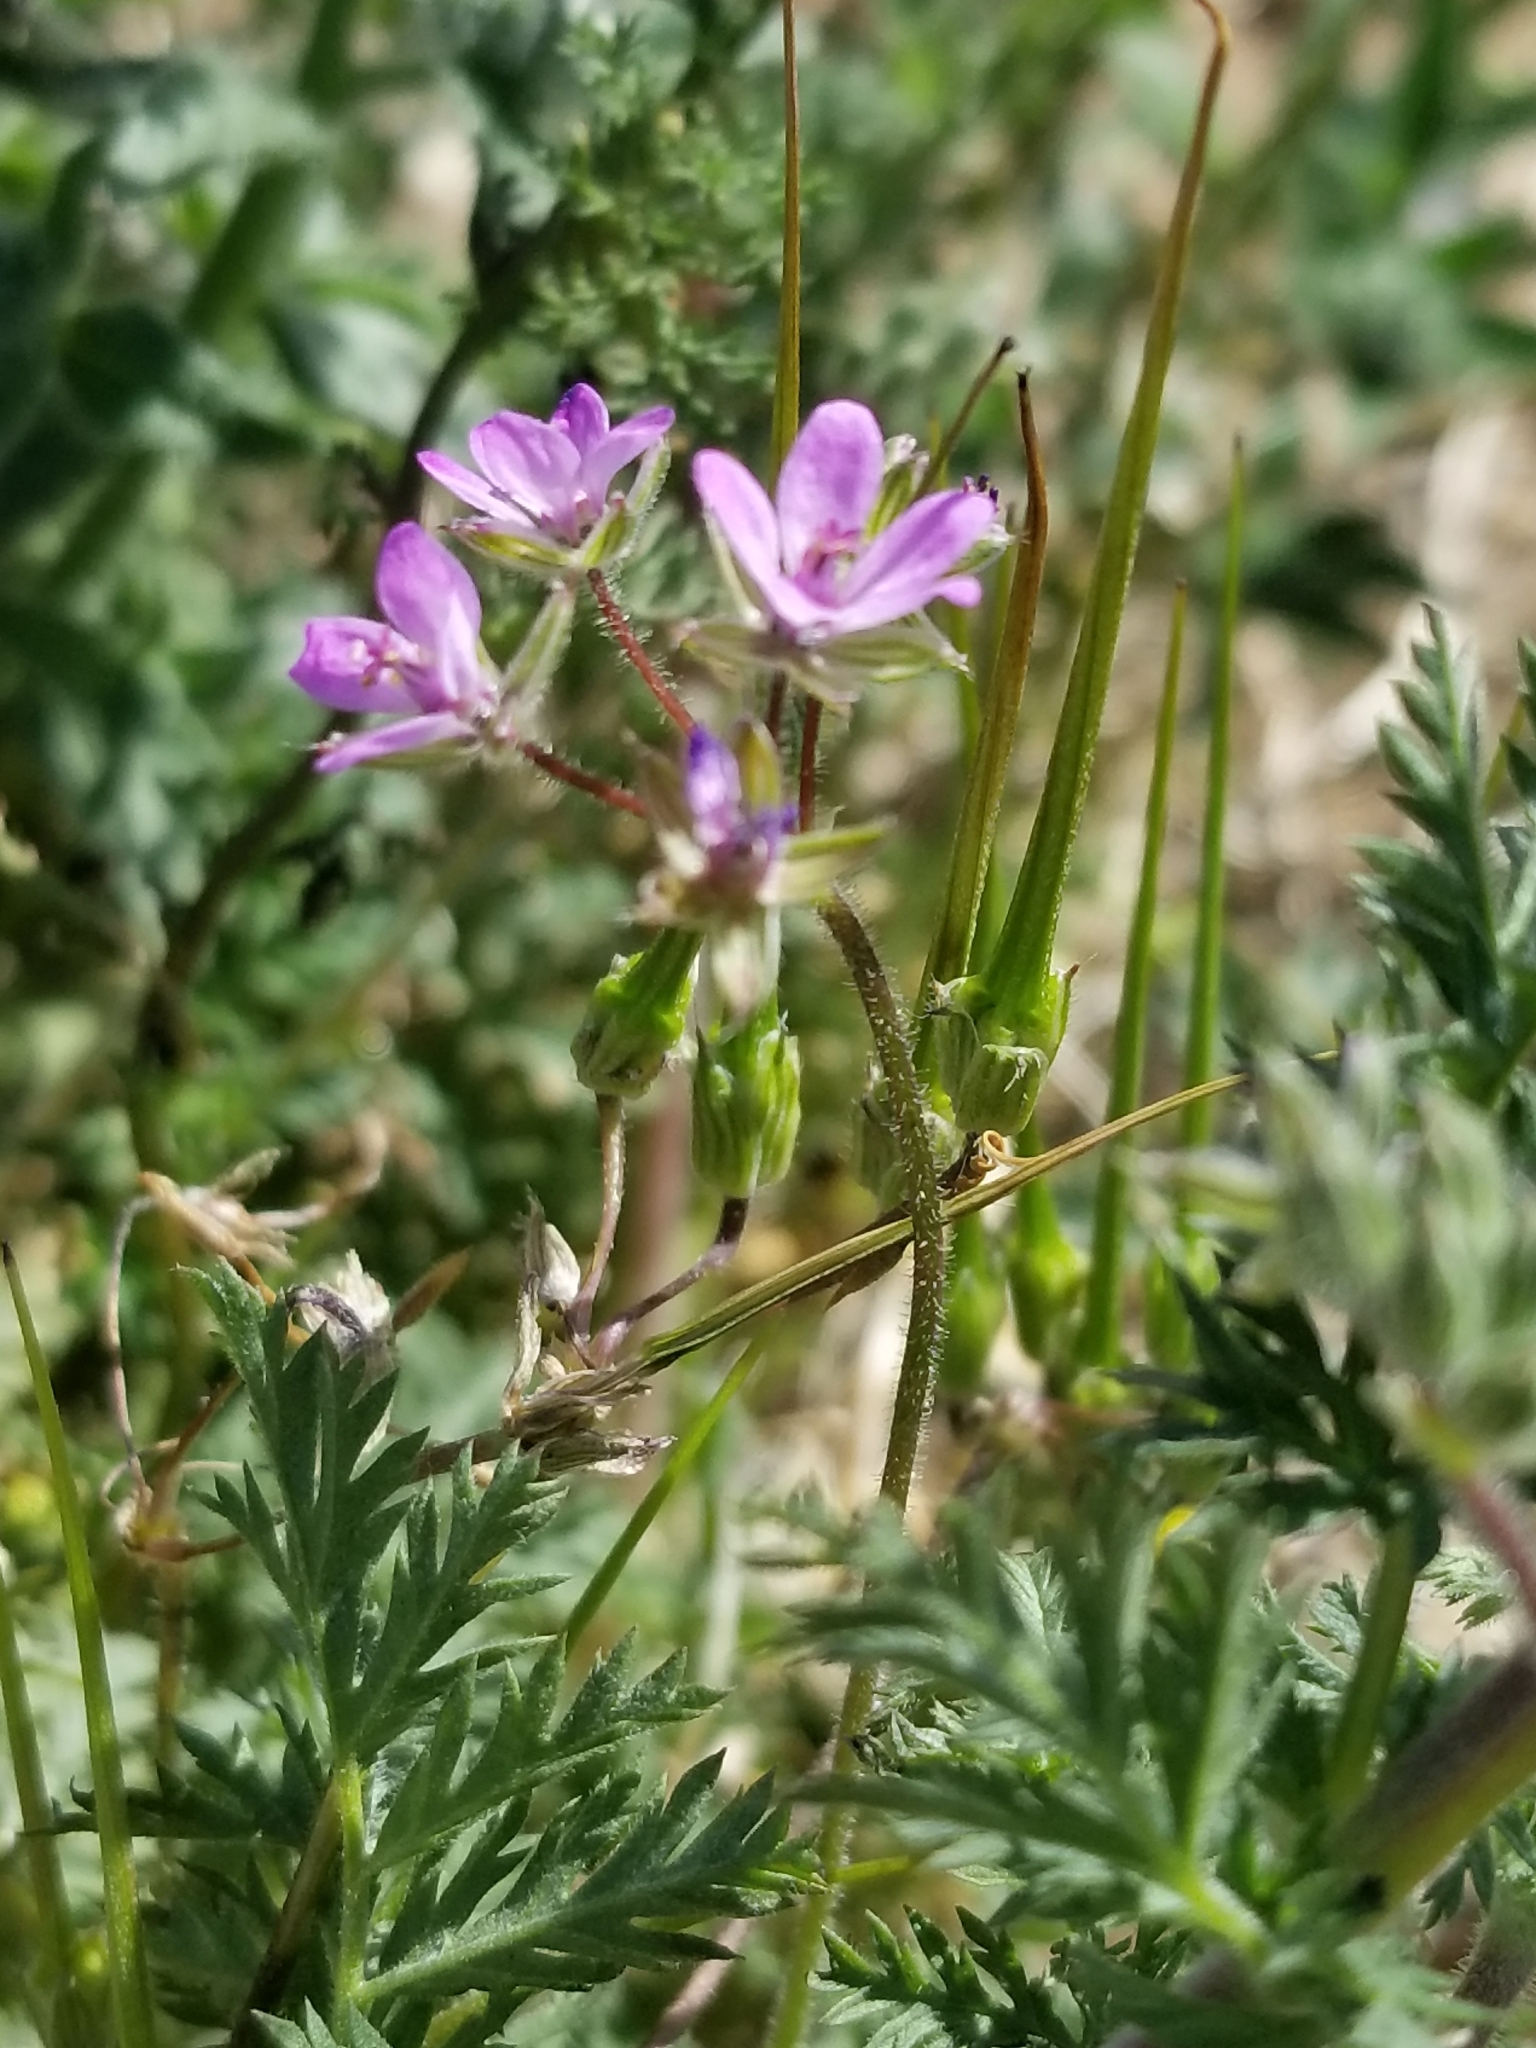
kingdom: Plantae
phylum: Tracheophyta
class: Magnoliopsida
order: Geraniales
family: Geraniaceae
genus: Erodium
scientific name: Erodium cicutarium
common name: Common stork's-bill
